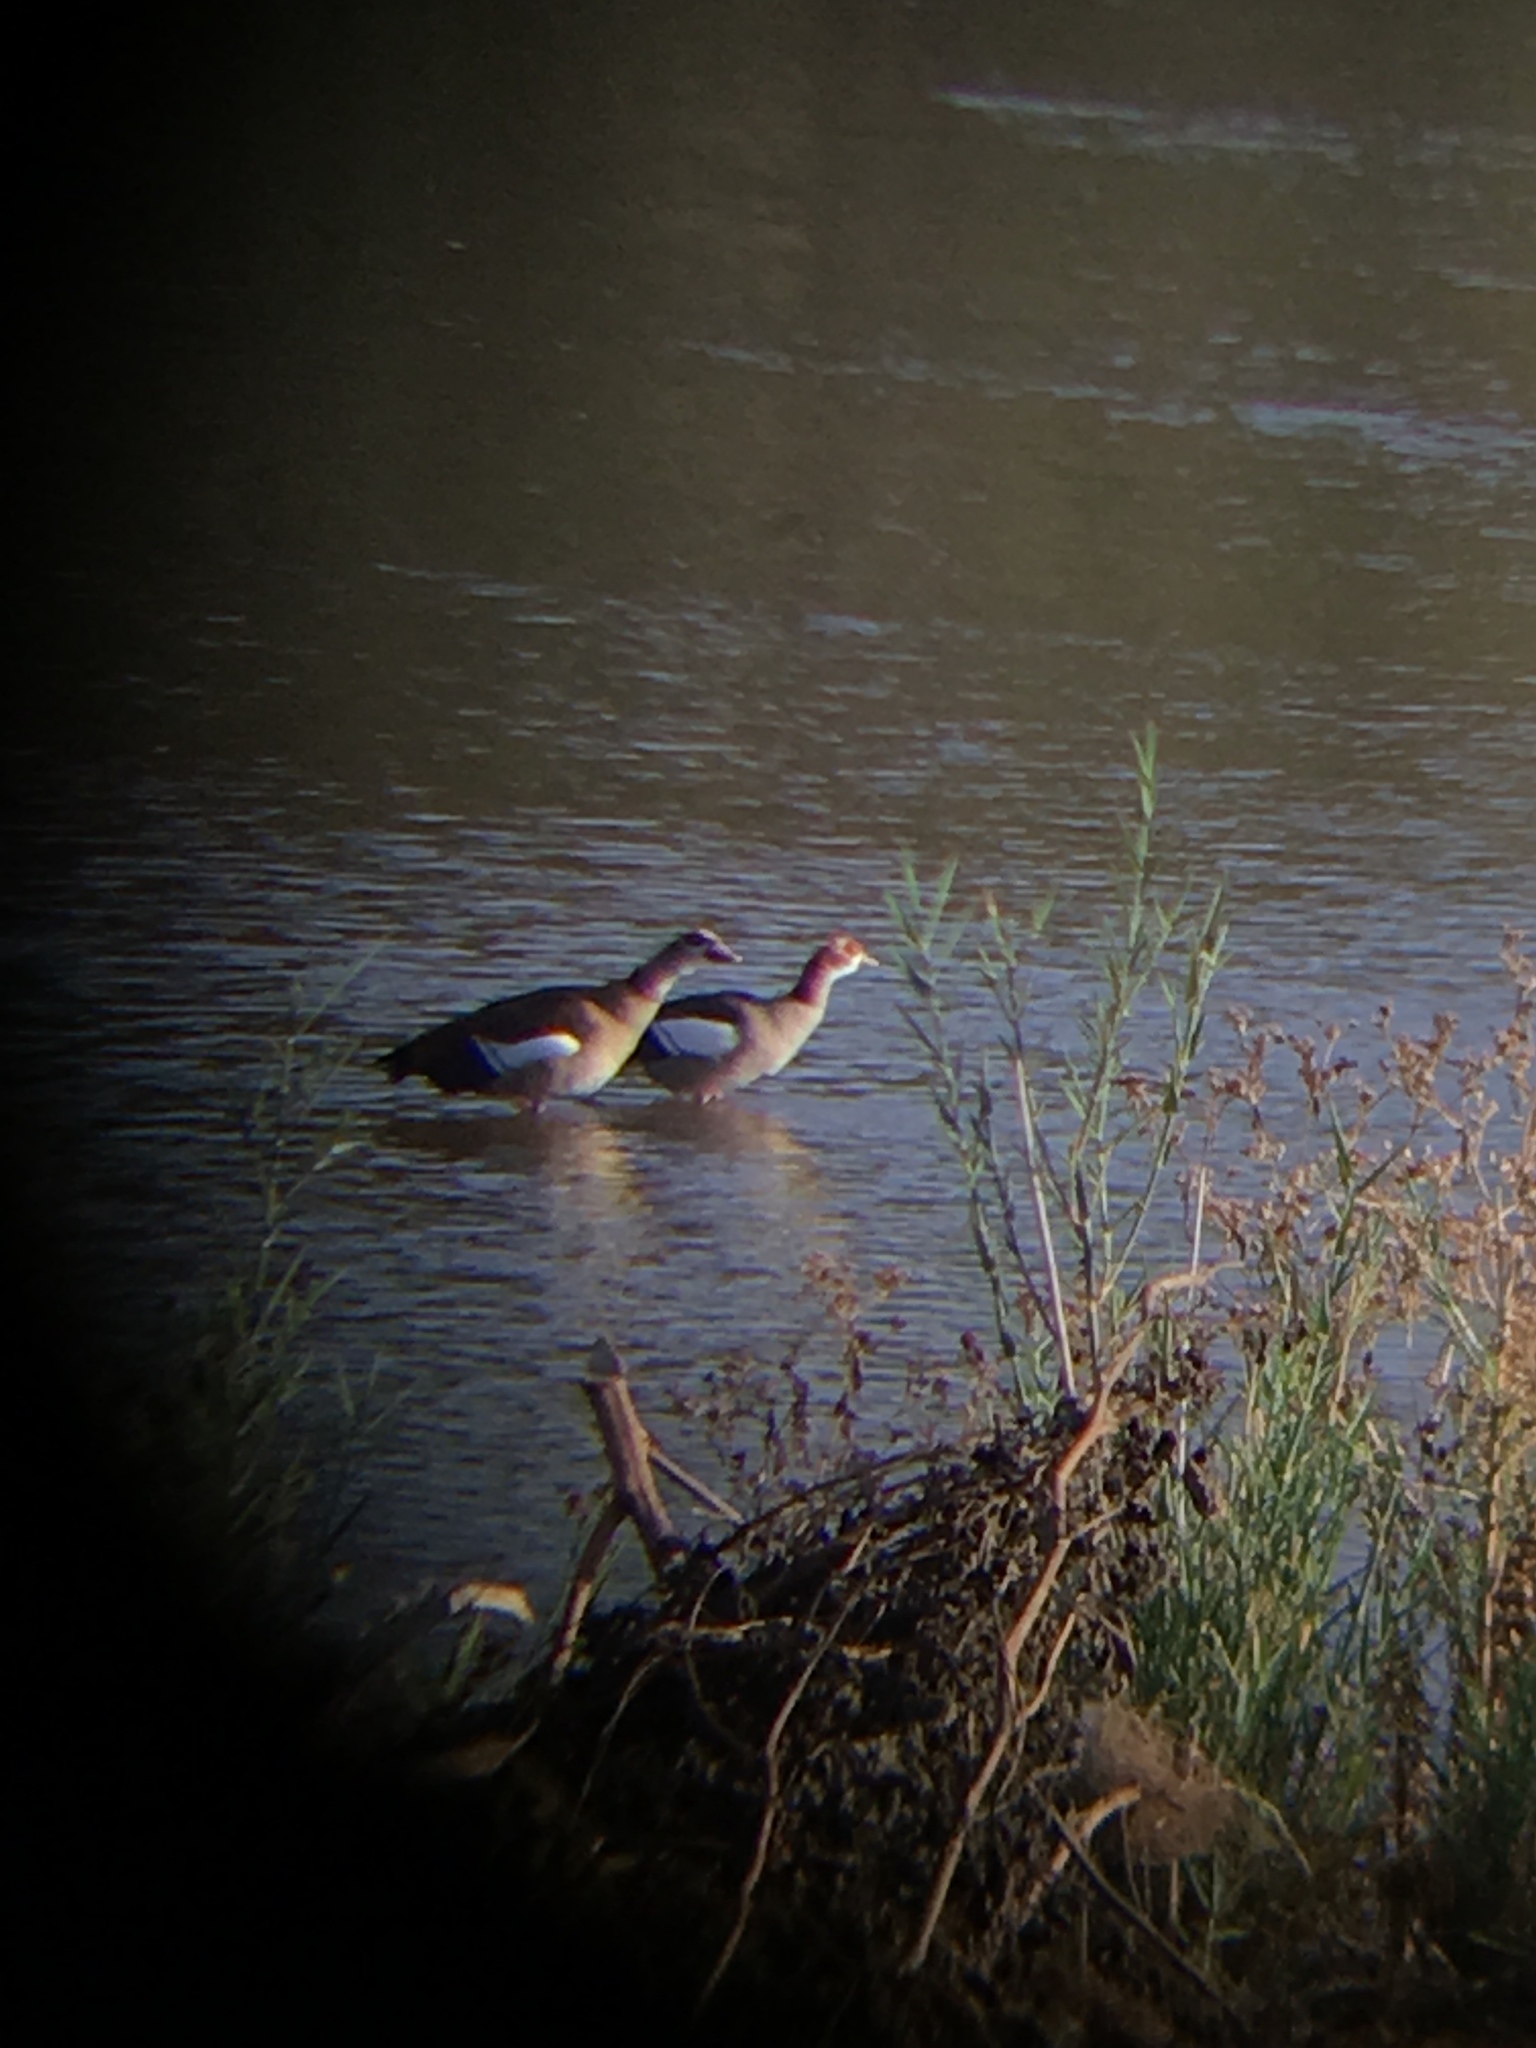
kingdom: Animalia
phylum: Chordata
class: Aves
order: Anseriformes
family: Anatidae
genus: Alopochen
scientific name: Alopochen aegyptiaca
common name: Egyptian goose
